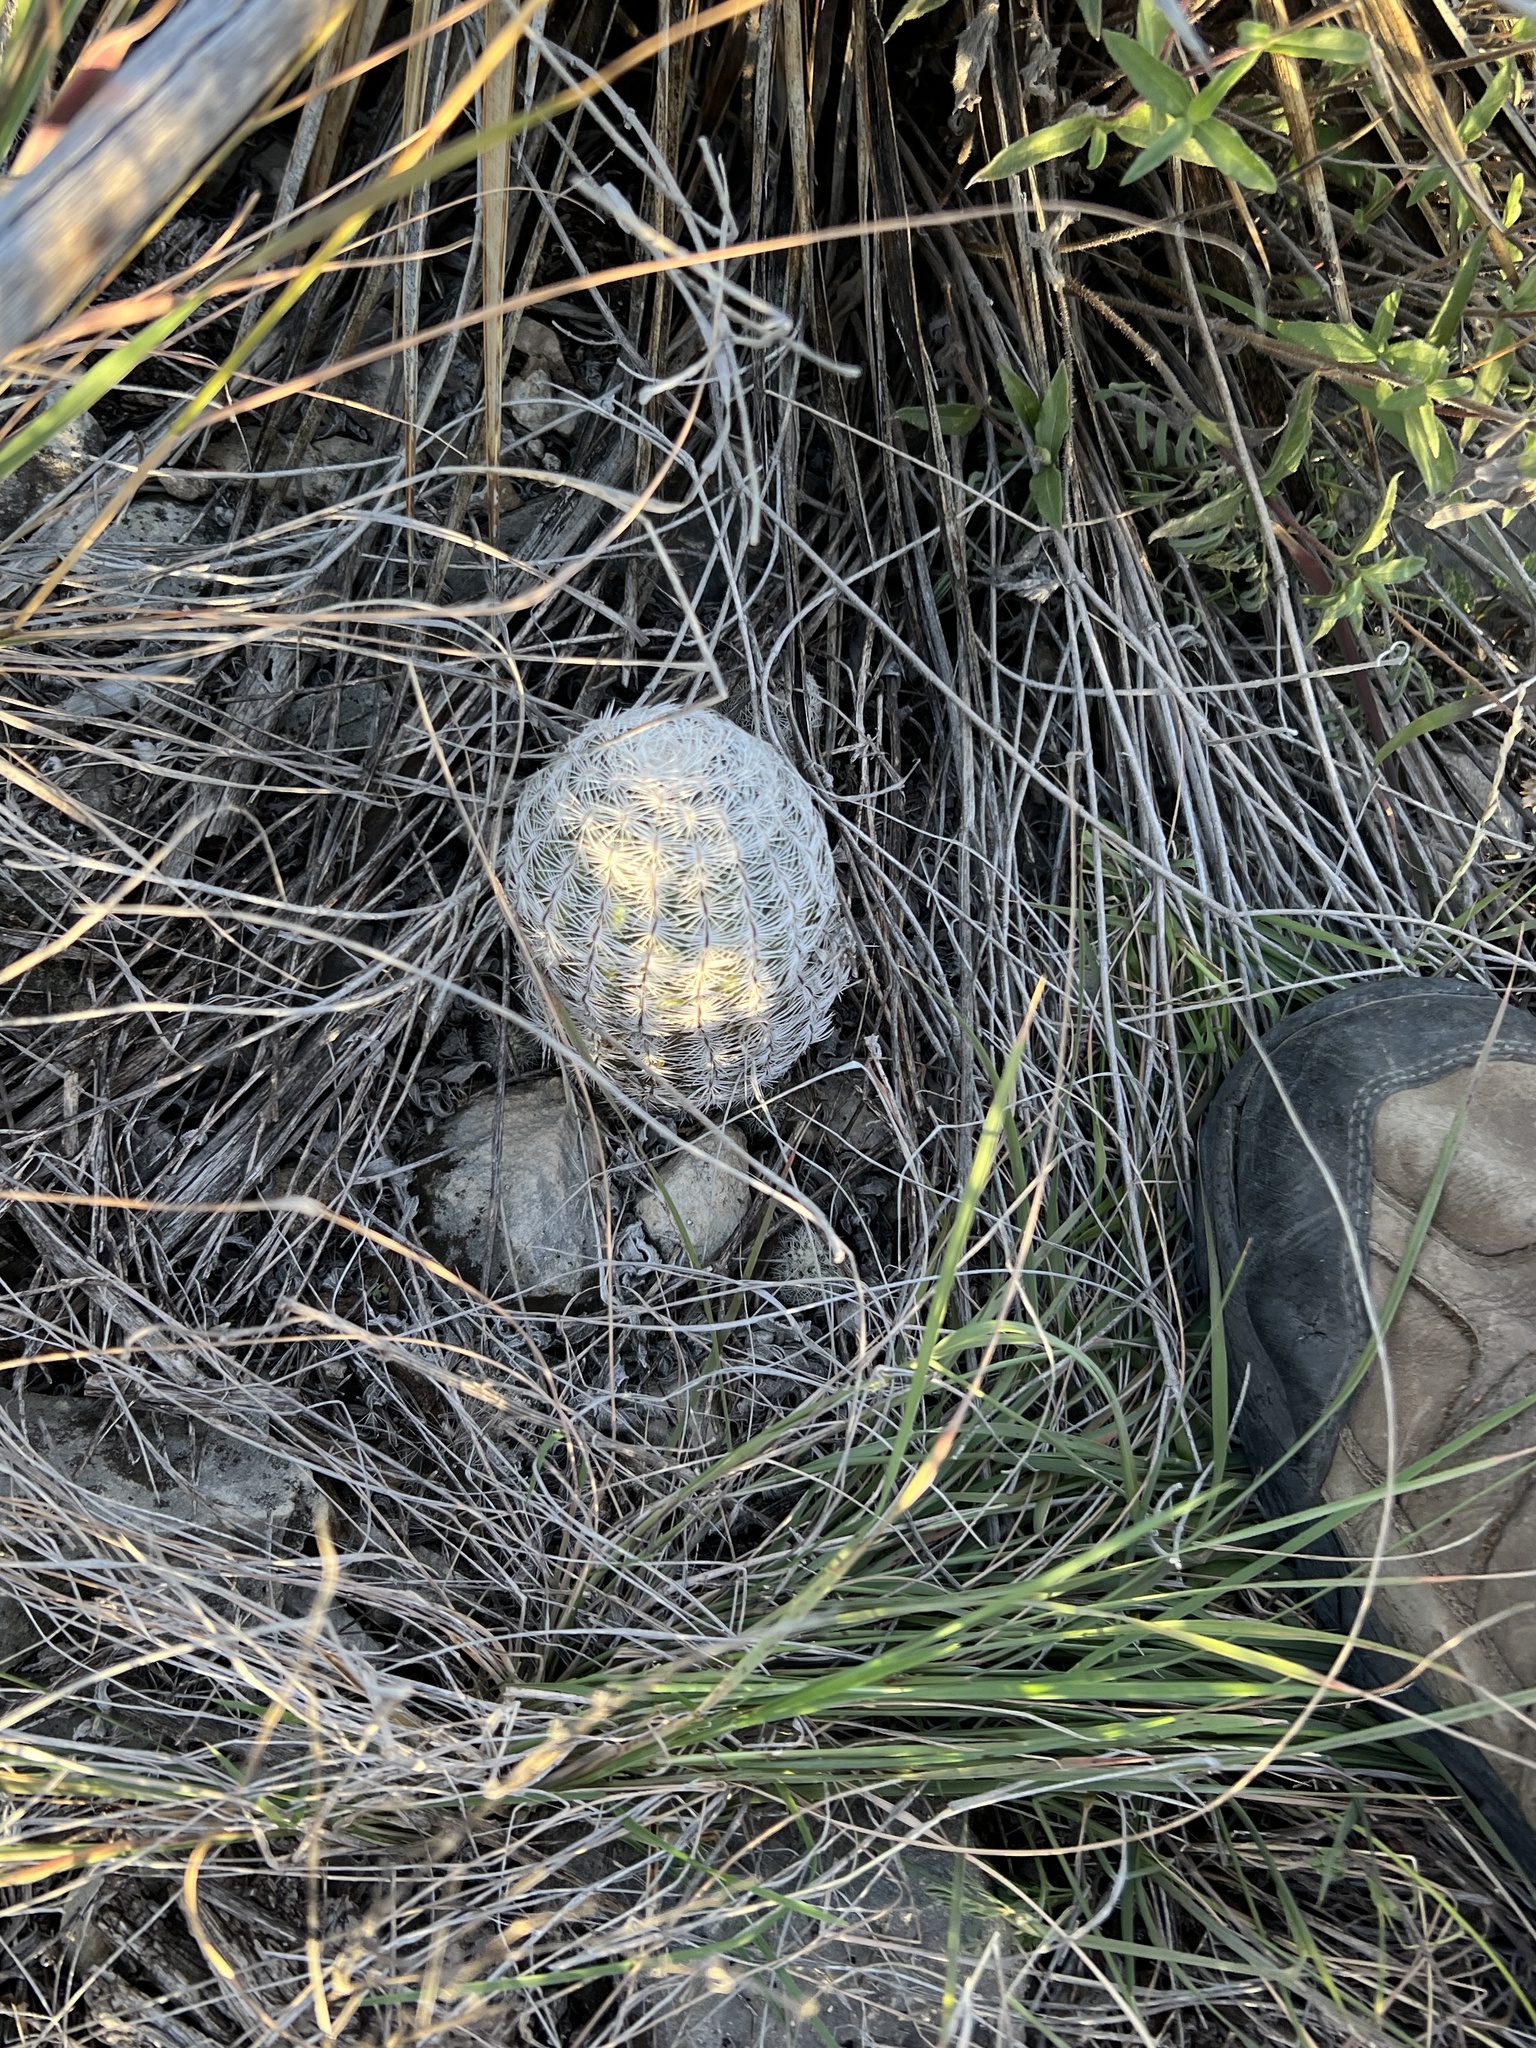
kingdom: Plantae
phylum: Tracheophyta
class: Magnoliopsida
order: Caryophyllales
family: Cactaceae
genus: Echinocereus
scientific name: Echinocereus reichenbachii
